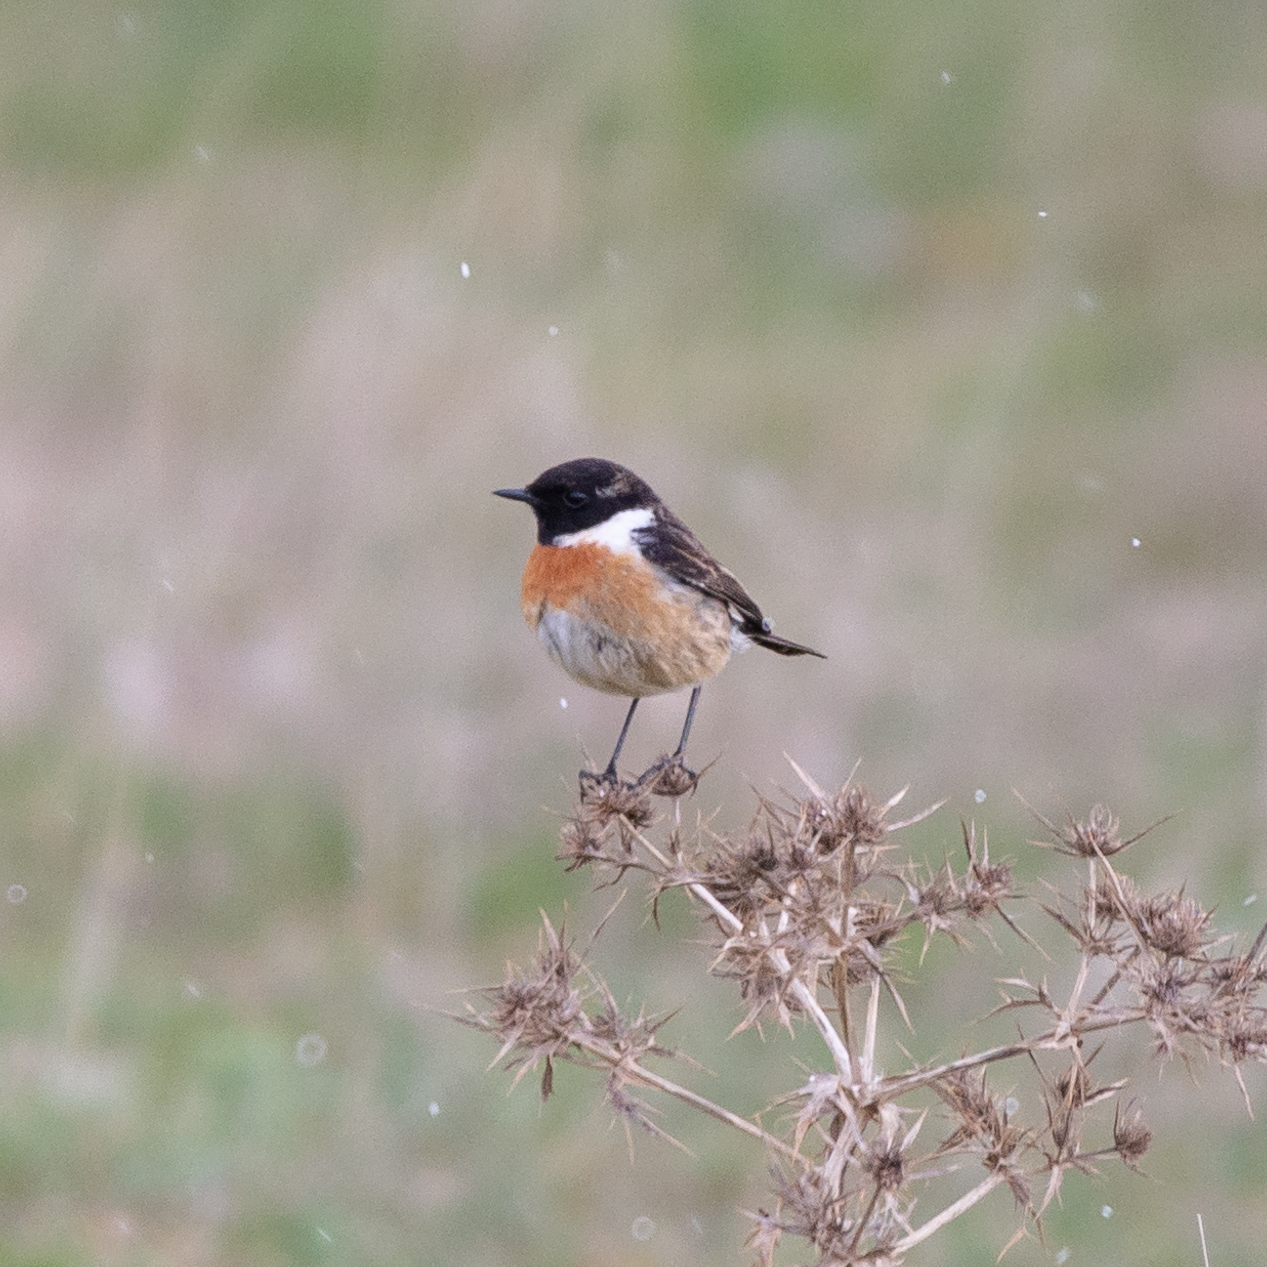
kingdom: Animalia
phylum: Chordata
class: Aves
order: Passeriformes
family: Muscicapidae
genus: Saxicola
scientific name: Saxicola rubicola
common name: European stonechat
